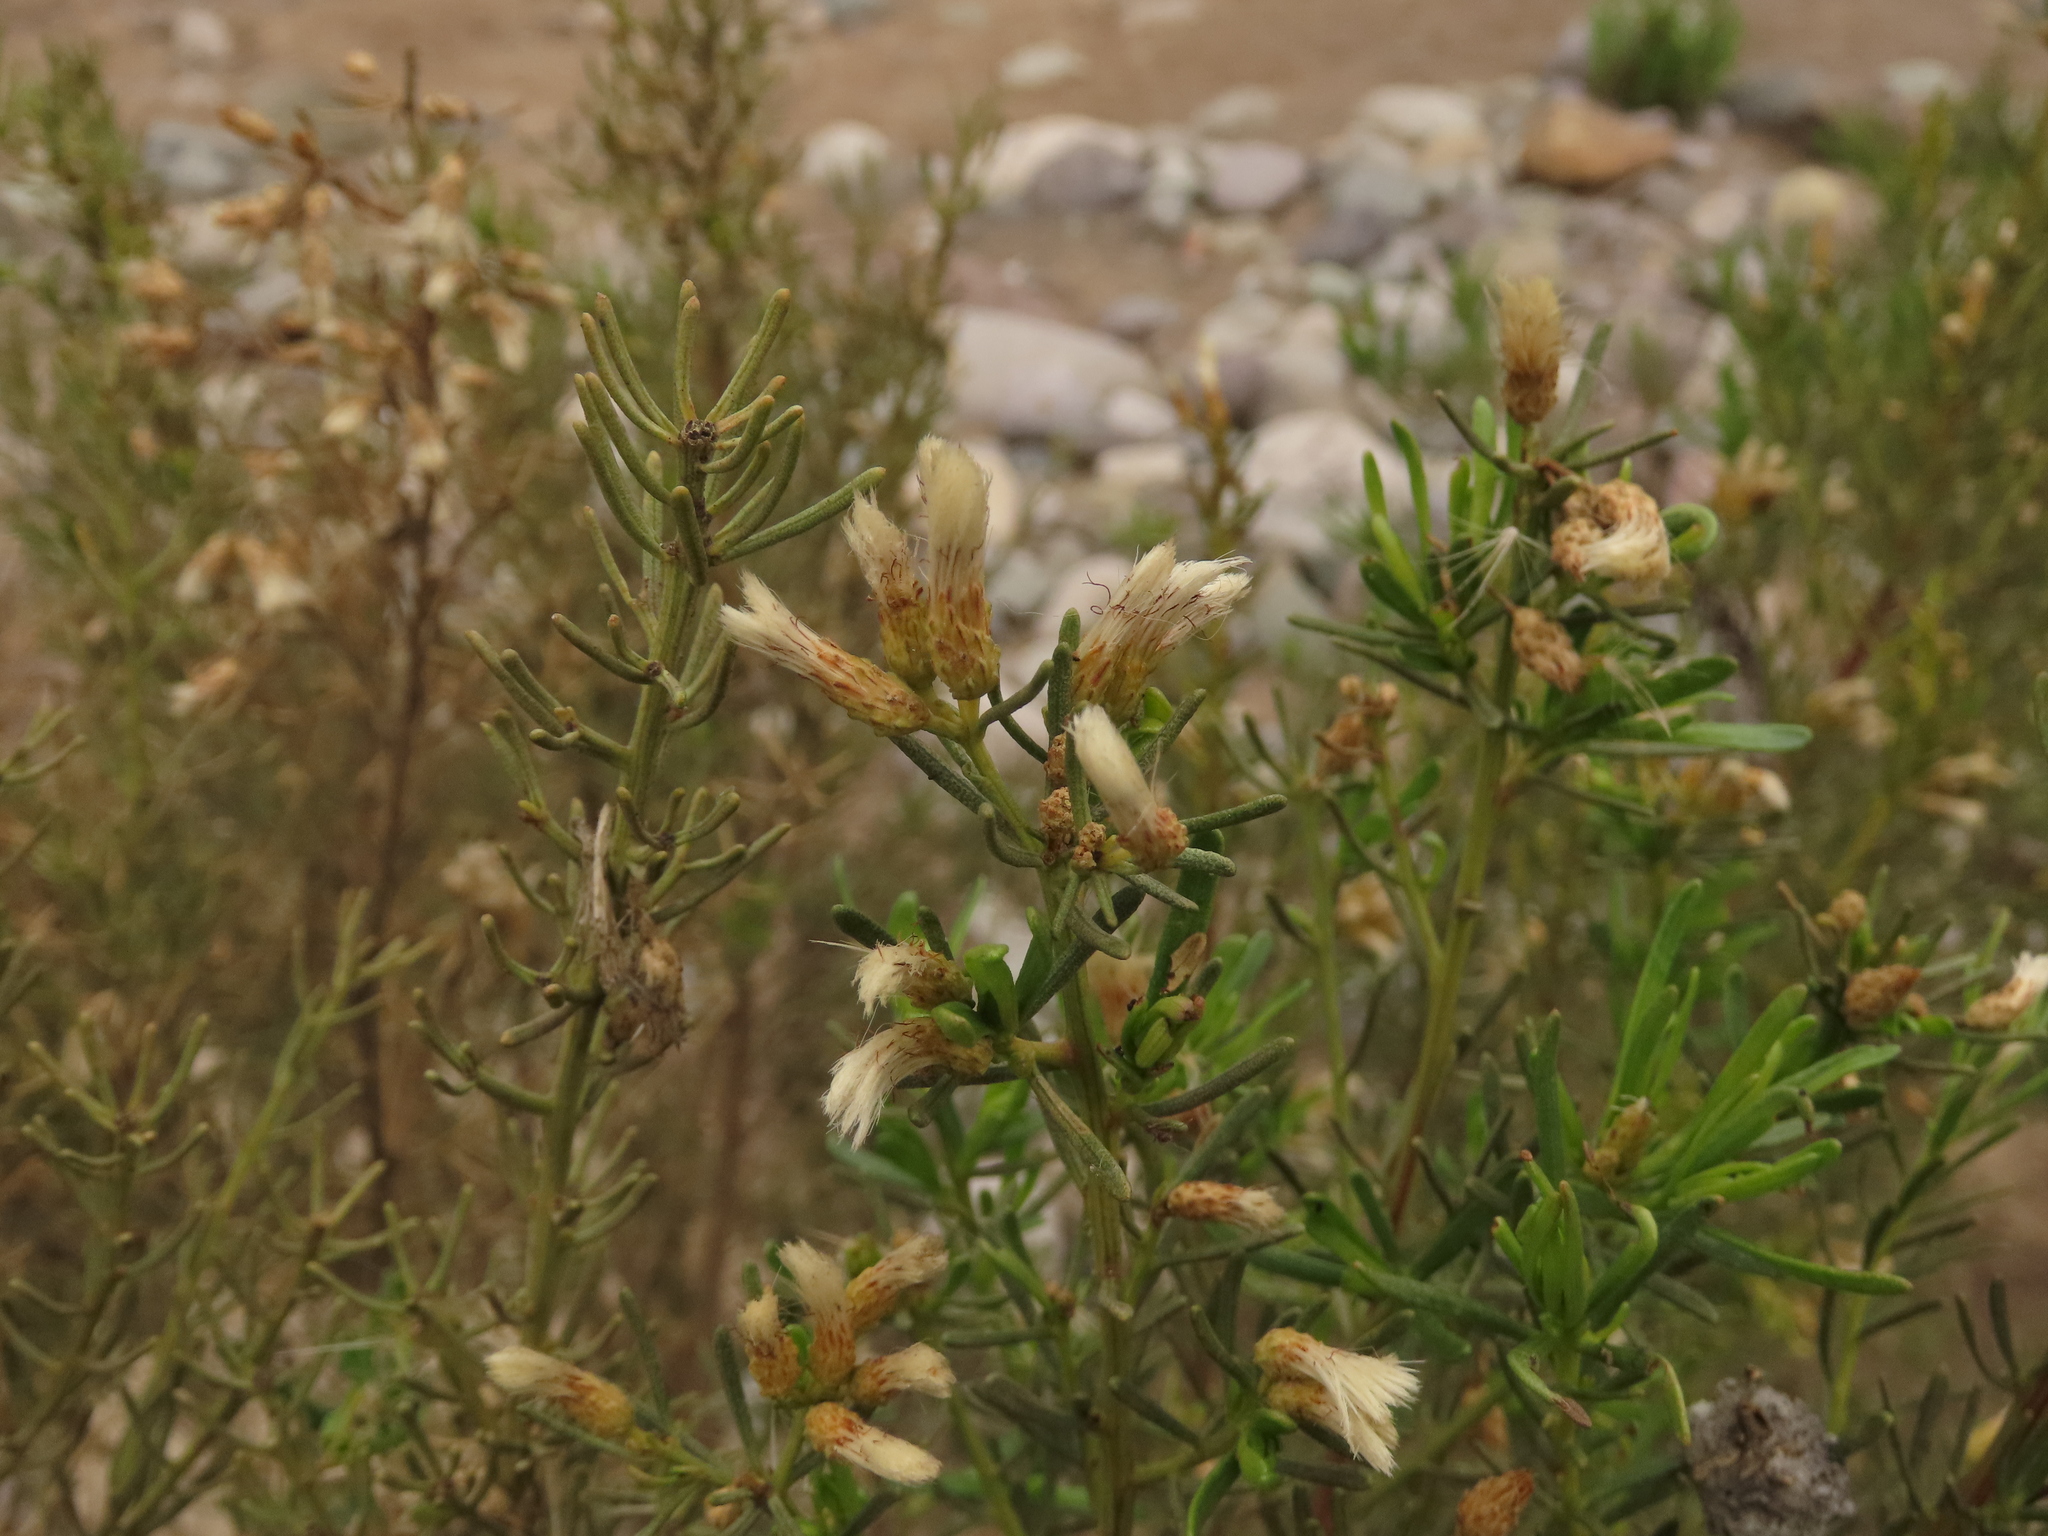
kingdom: Plantae
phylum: Tracheophyta
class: Magnoliopsida
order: Asterales
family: Asteraceae
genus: Baccharis
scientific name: Baccharis linearis
